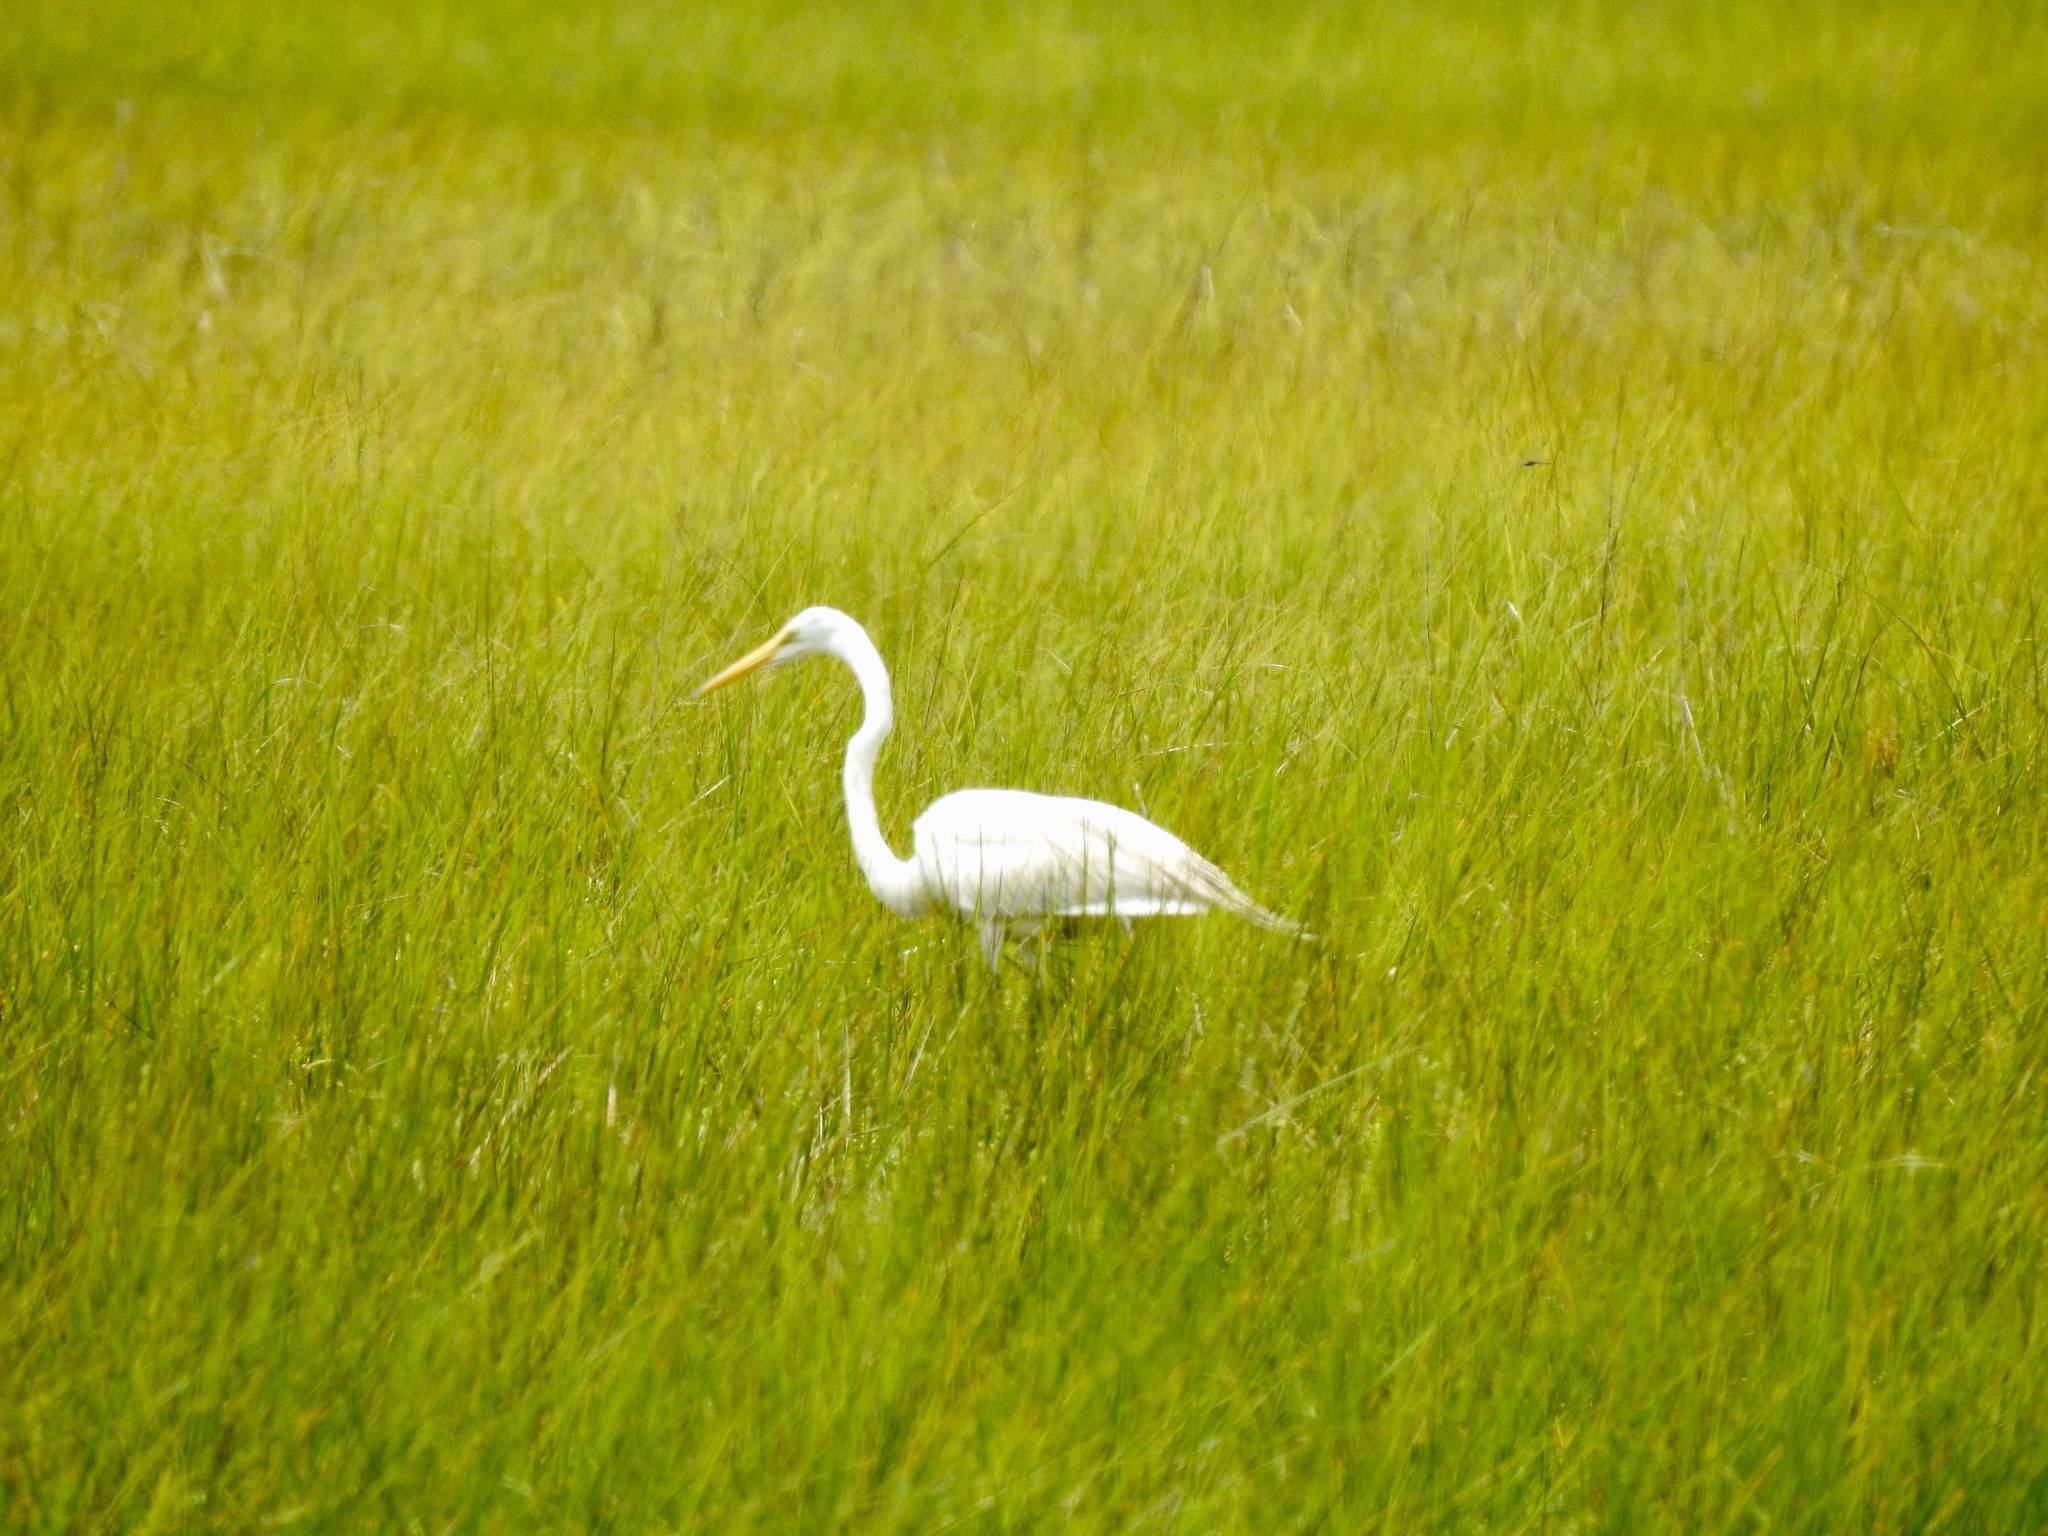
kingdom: Animalia
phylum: Chordata
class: Aves
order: Pelecaniformes
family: Ardeidae
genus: Ardea
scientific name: Ardea alba
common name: Great egret
